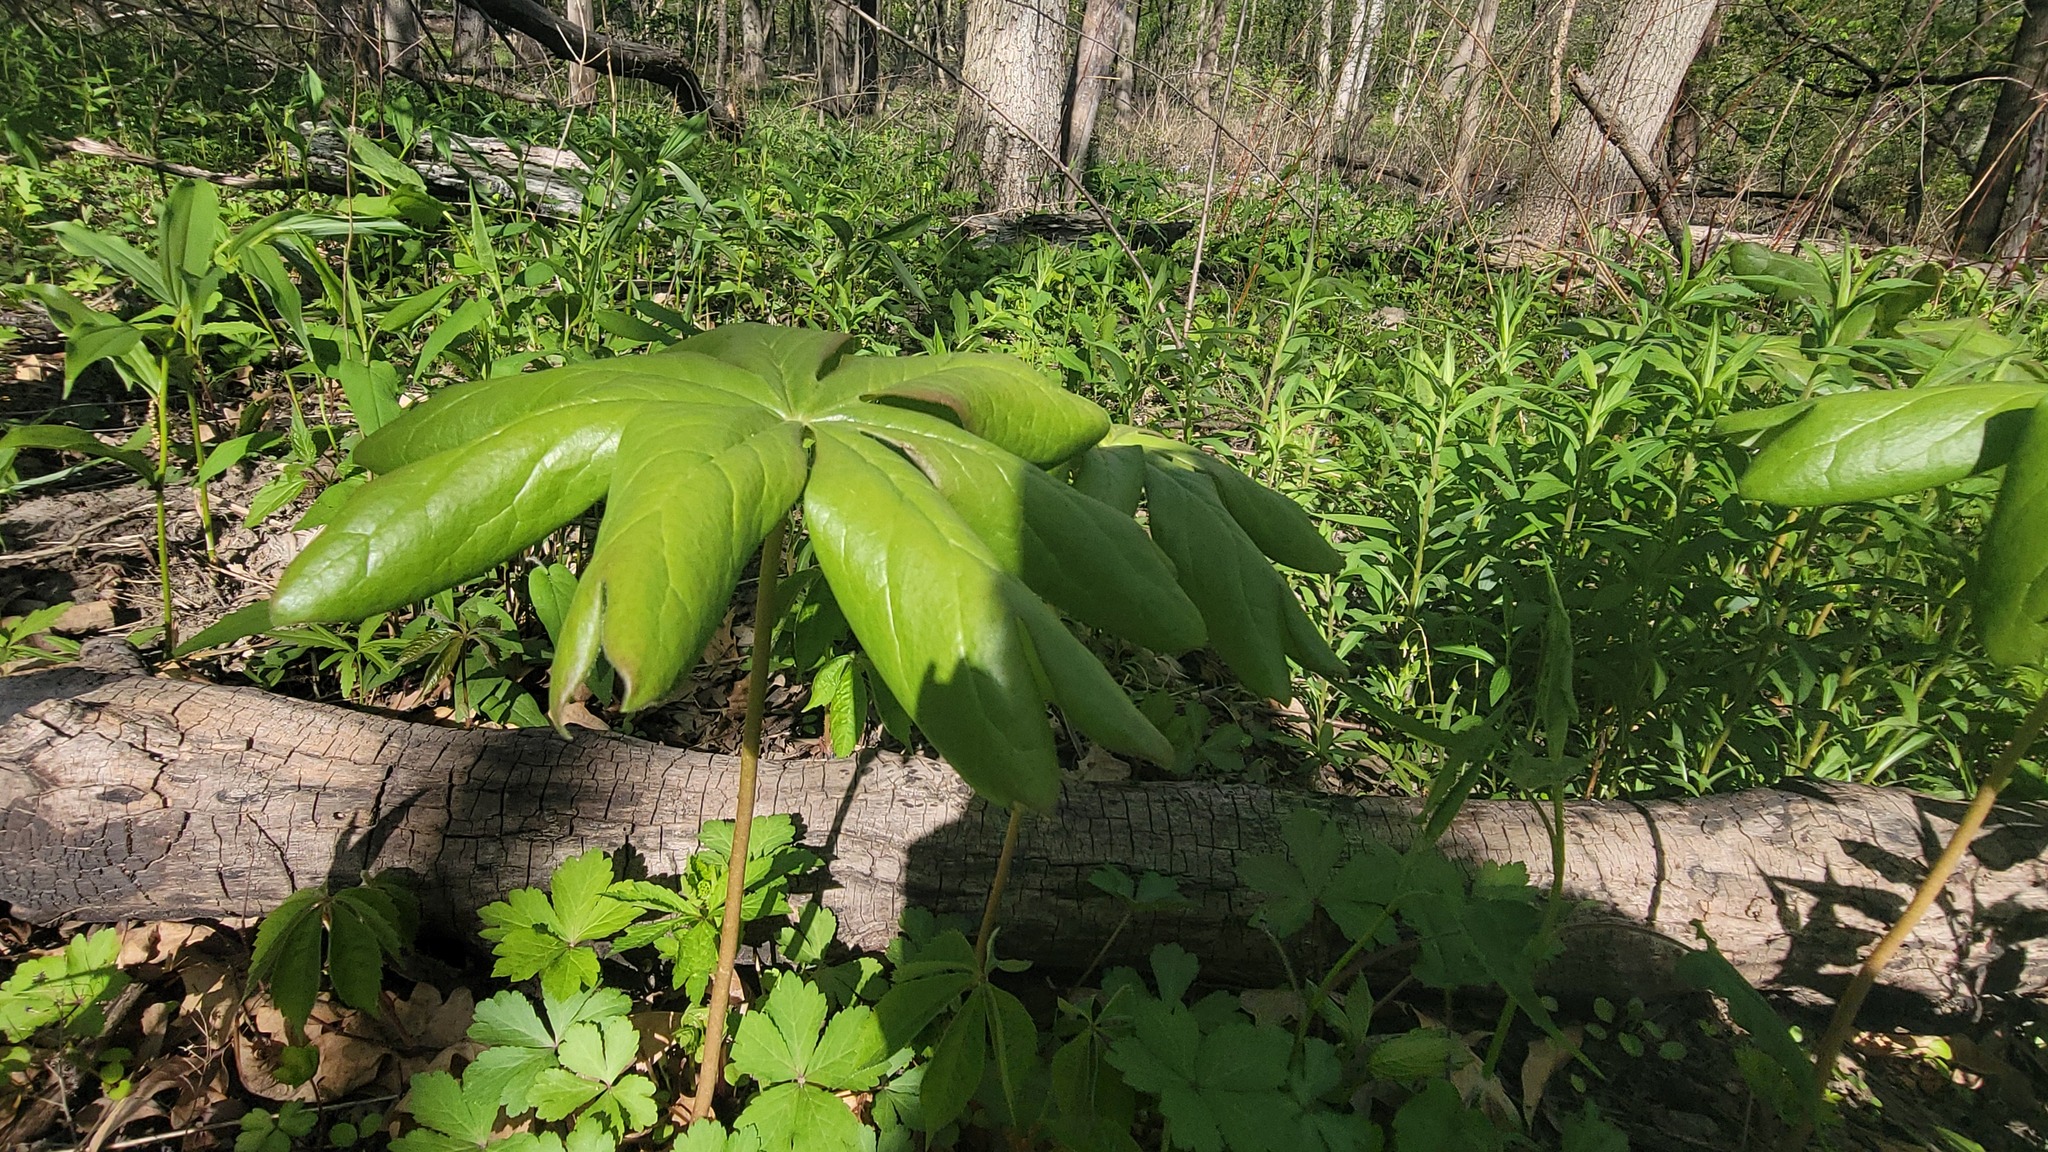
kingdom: Plantae
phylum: Tracheophyta
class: Magnoliopsida
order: Ranunculales
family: Berberidaceae
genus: Podophyllum
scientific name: Podophyllum peltatum
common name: Wild mandrake
